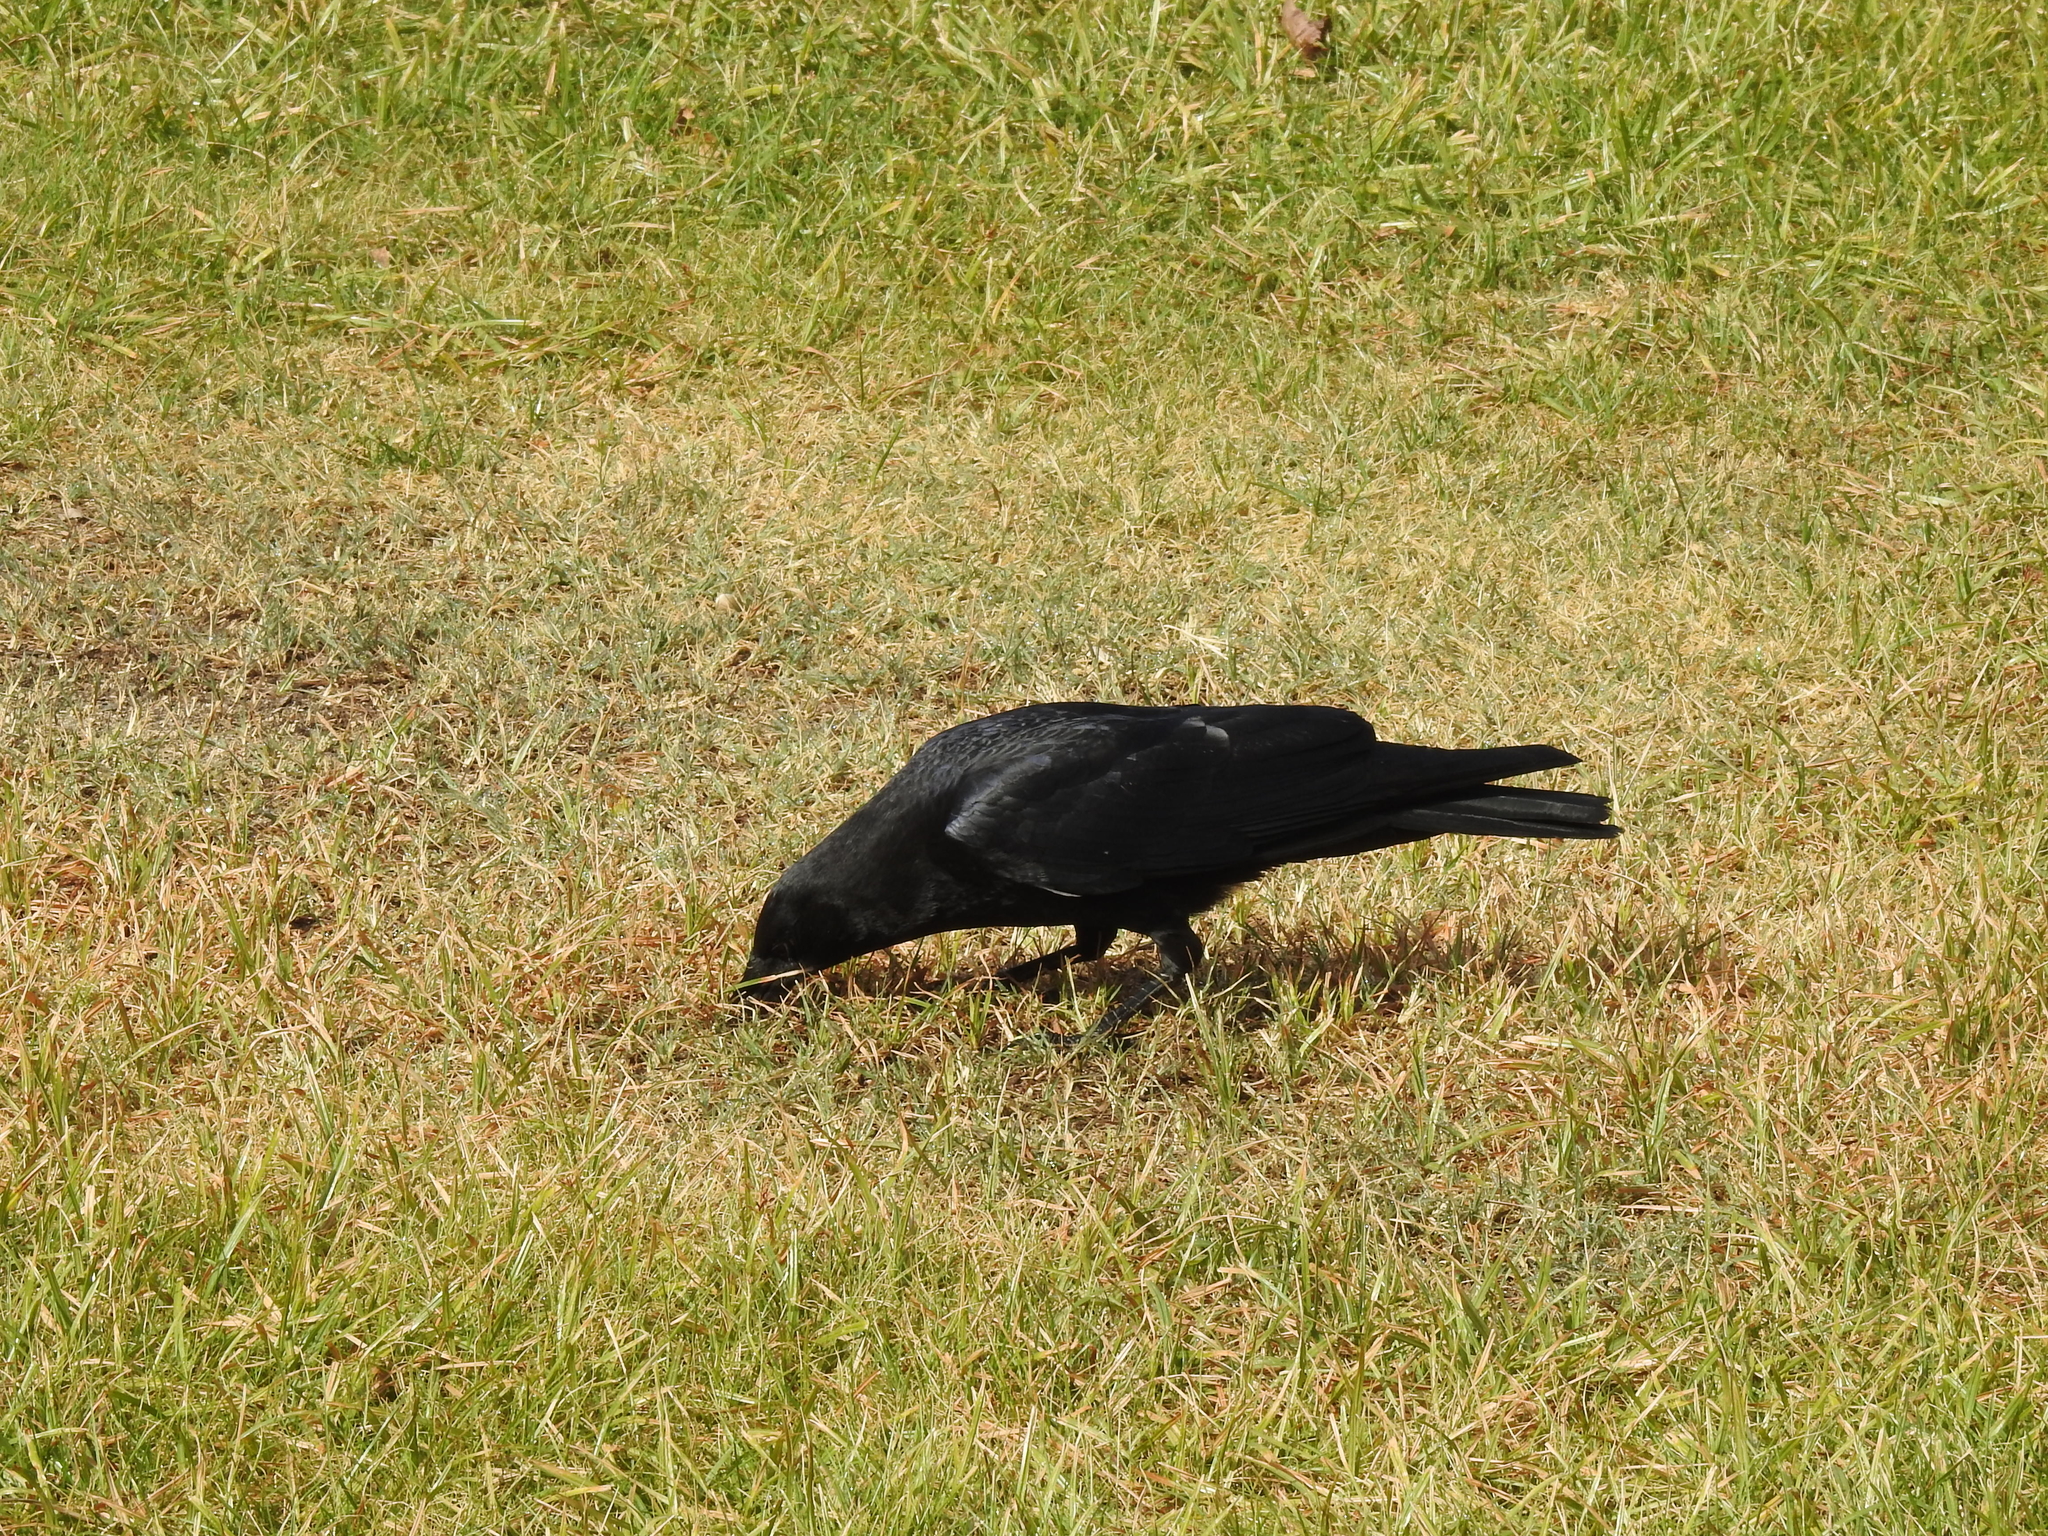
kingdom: Animalia
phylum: Chordata
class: Aves
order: Passeriformes
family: Corvidae
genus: Corvus
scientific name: Corvus brachyrhynchos
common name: American crow
